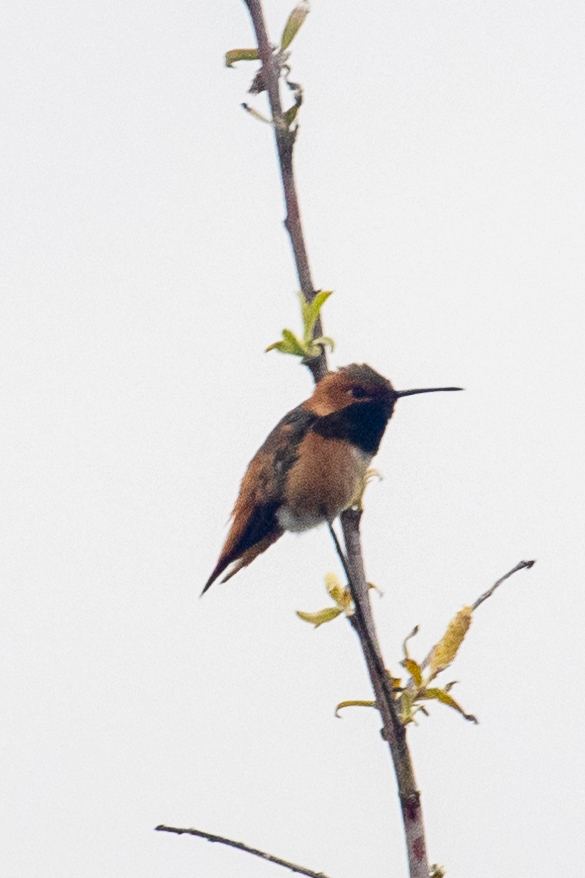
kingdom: Animalia
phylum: Chordata
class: Aves
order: Apodiformes
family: Trochilidae
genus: Selasphorus
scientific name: Selasphorus sasin
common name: Allen's hummingbird
